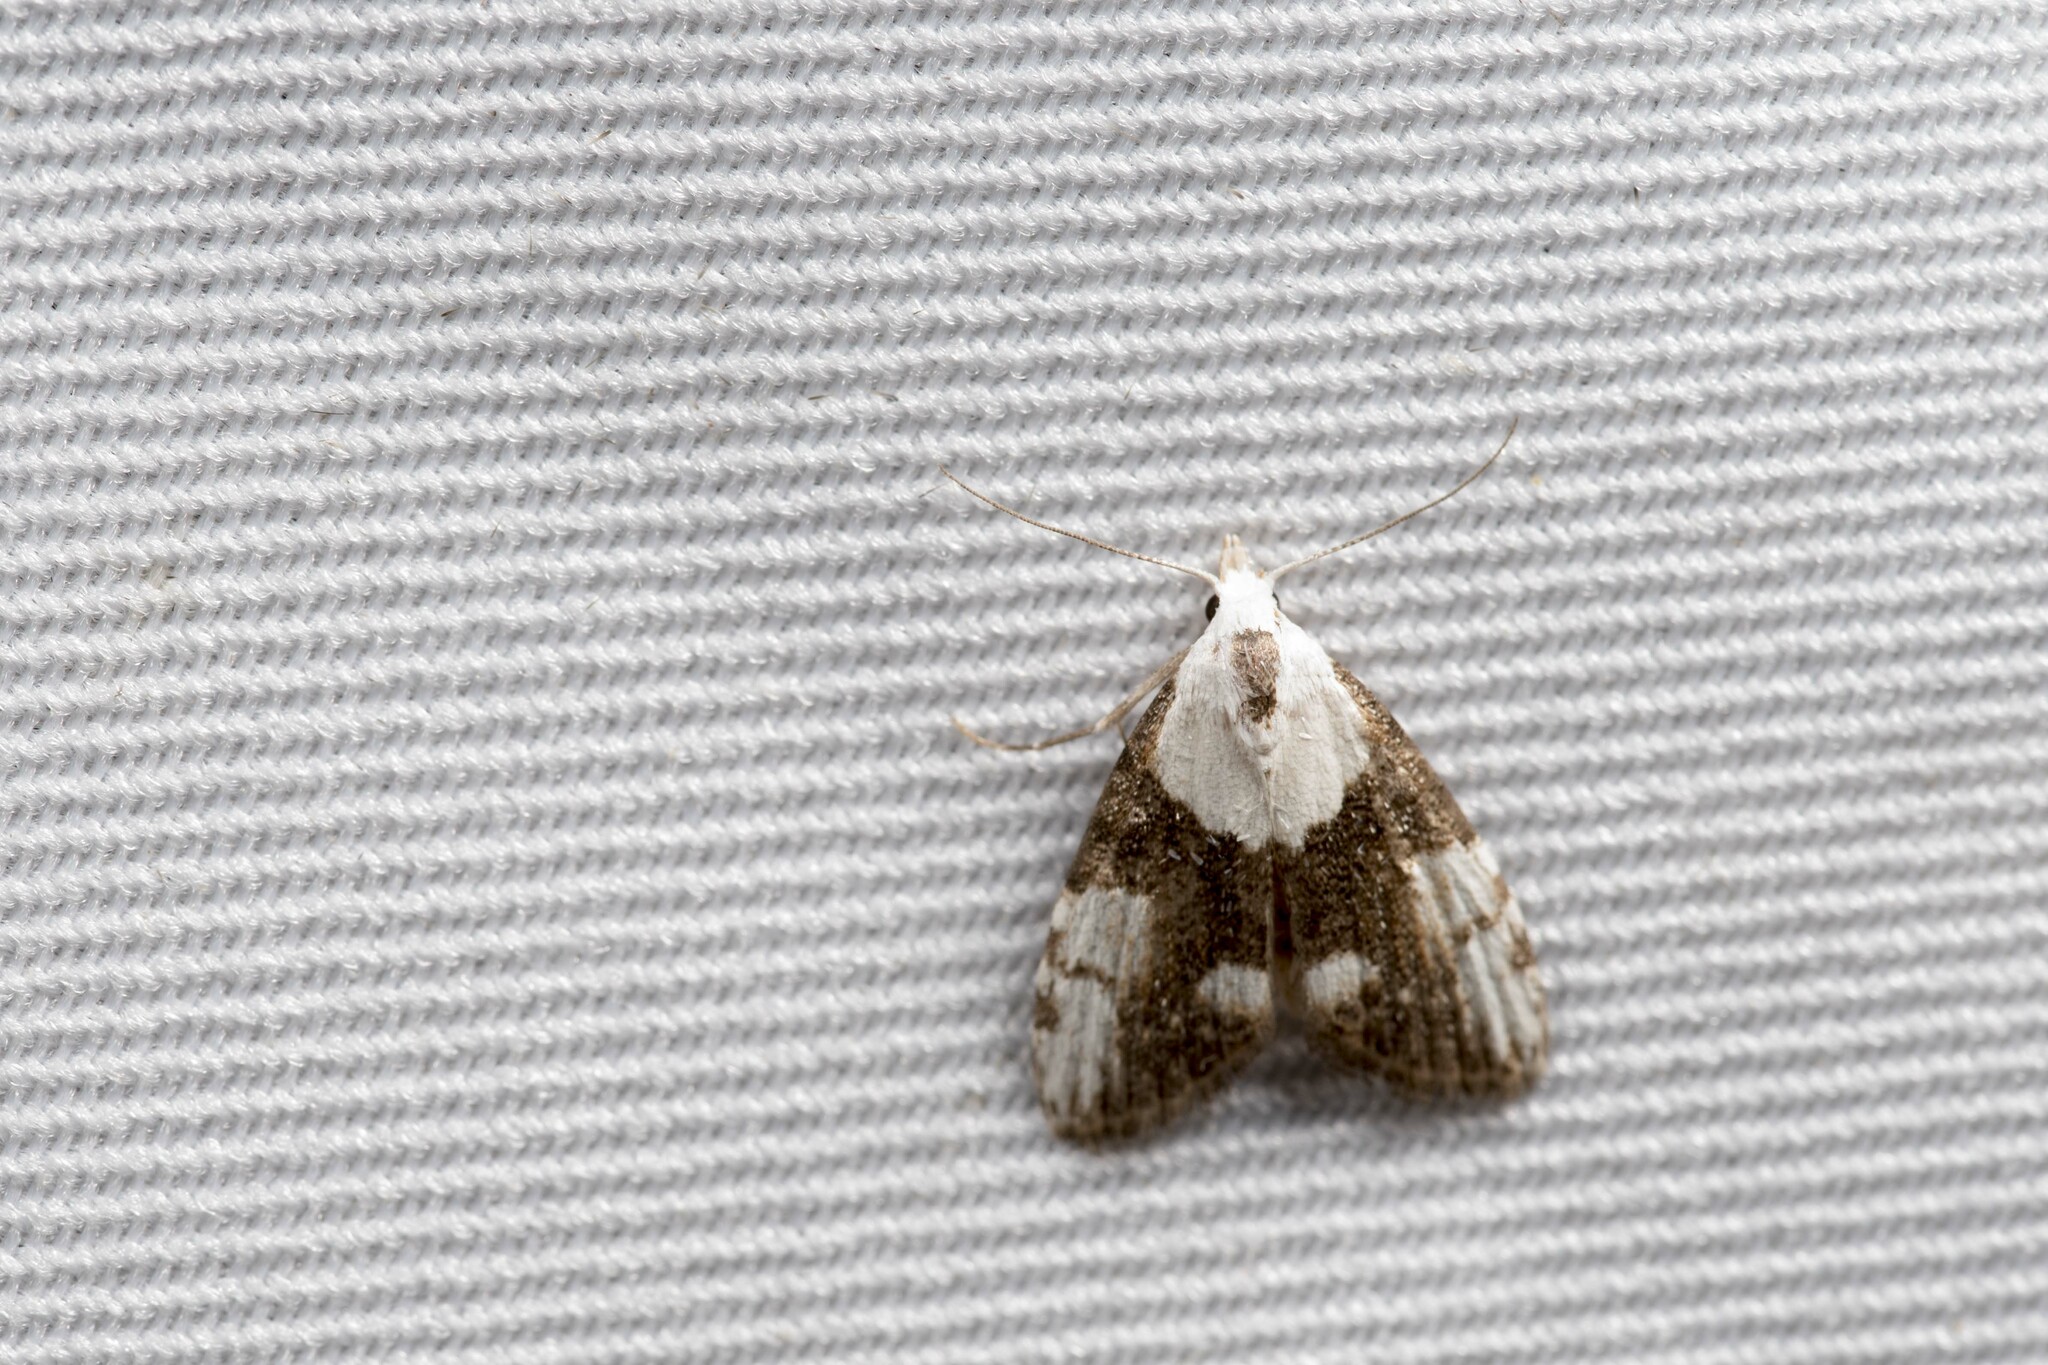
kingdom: Animalia
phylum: Arthropoda
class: Insecta
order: Lepidoptera
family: Nolidae
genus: Manoba
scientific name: Manoba lativittata
